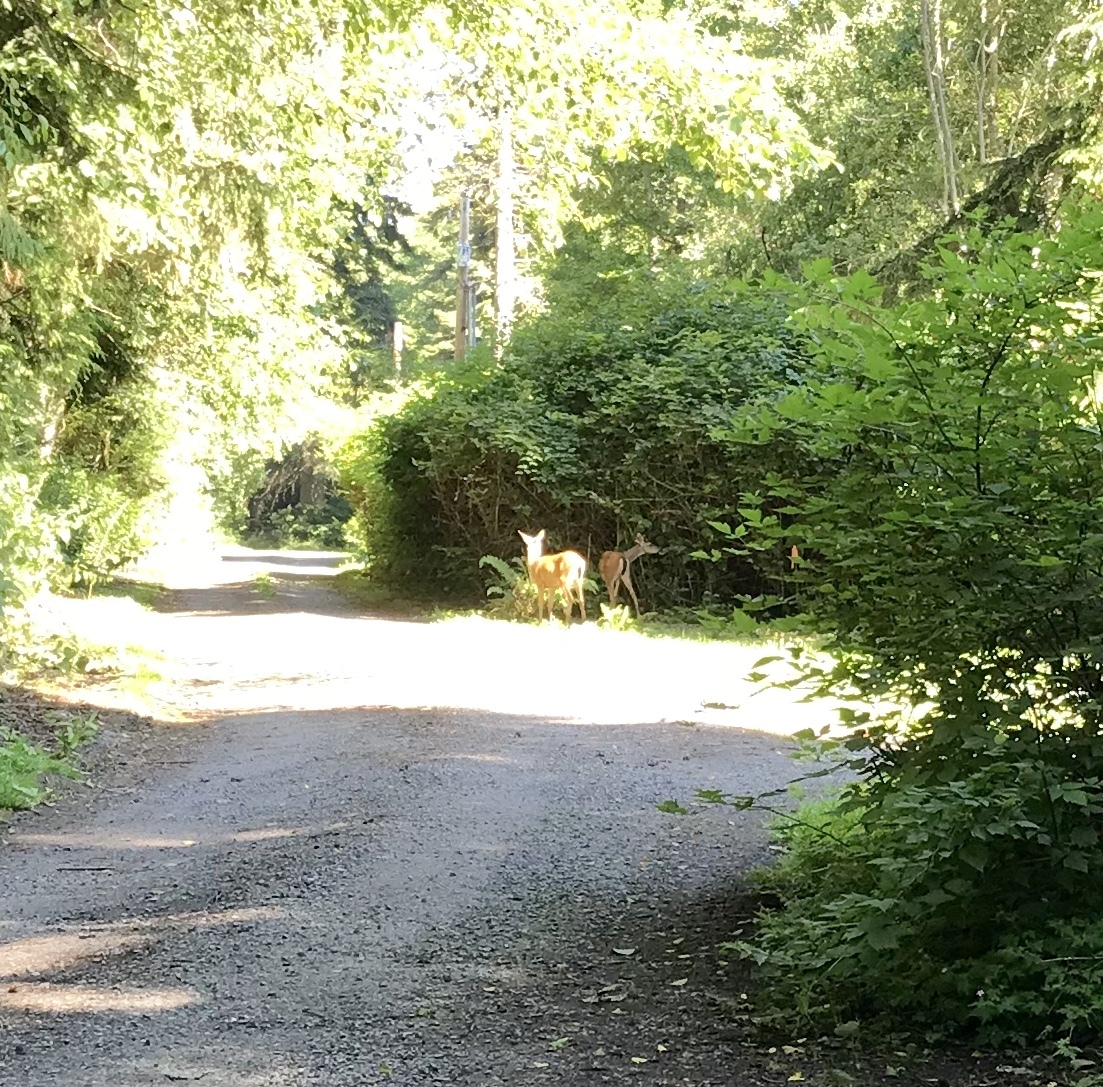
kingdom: Animalia
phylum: Chordata
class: Mammalia
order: Artiodactyla
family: Cervidae
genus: Odocoileus
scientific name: Odocoileus hemionus
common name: Mule deer
